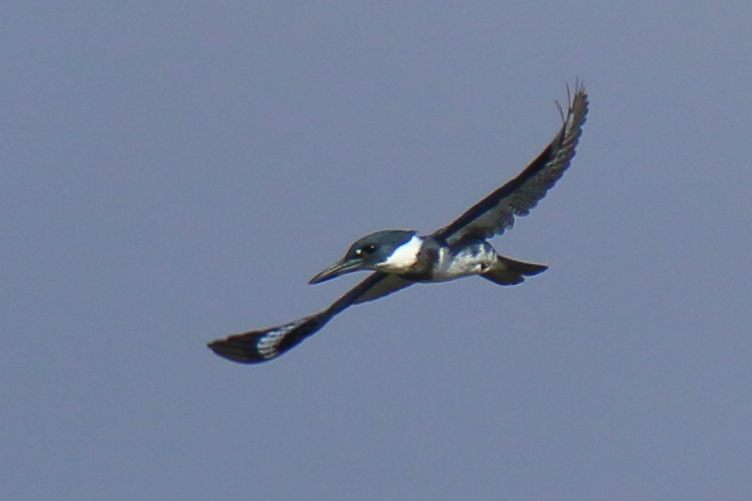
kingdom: Animalia
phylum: Chordata
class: Aves
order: Coraciiformes
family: Alcedinidae
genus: Megaceryle
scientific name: Megaceryle alcyon
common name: Belted kingfisher
